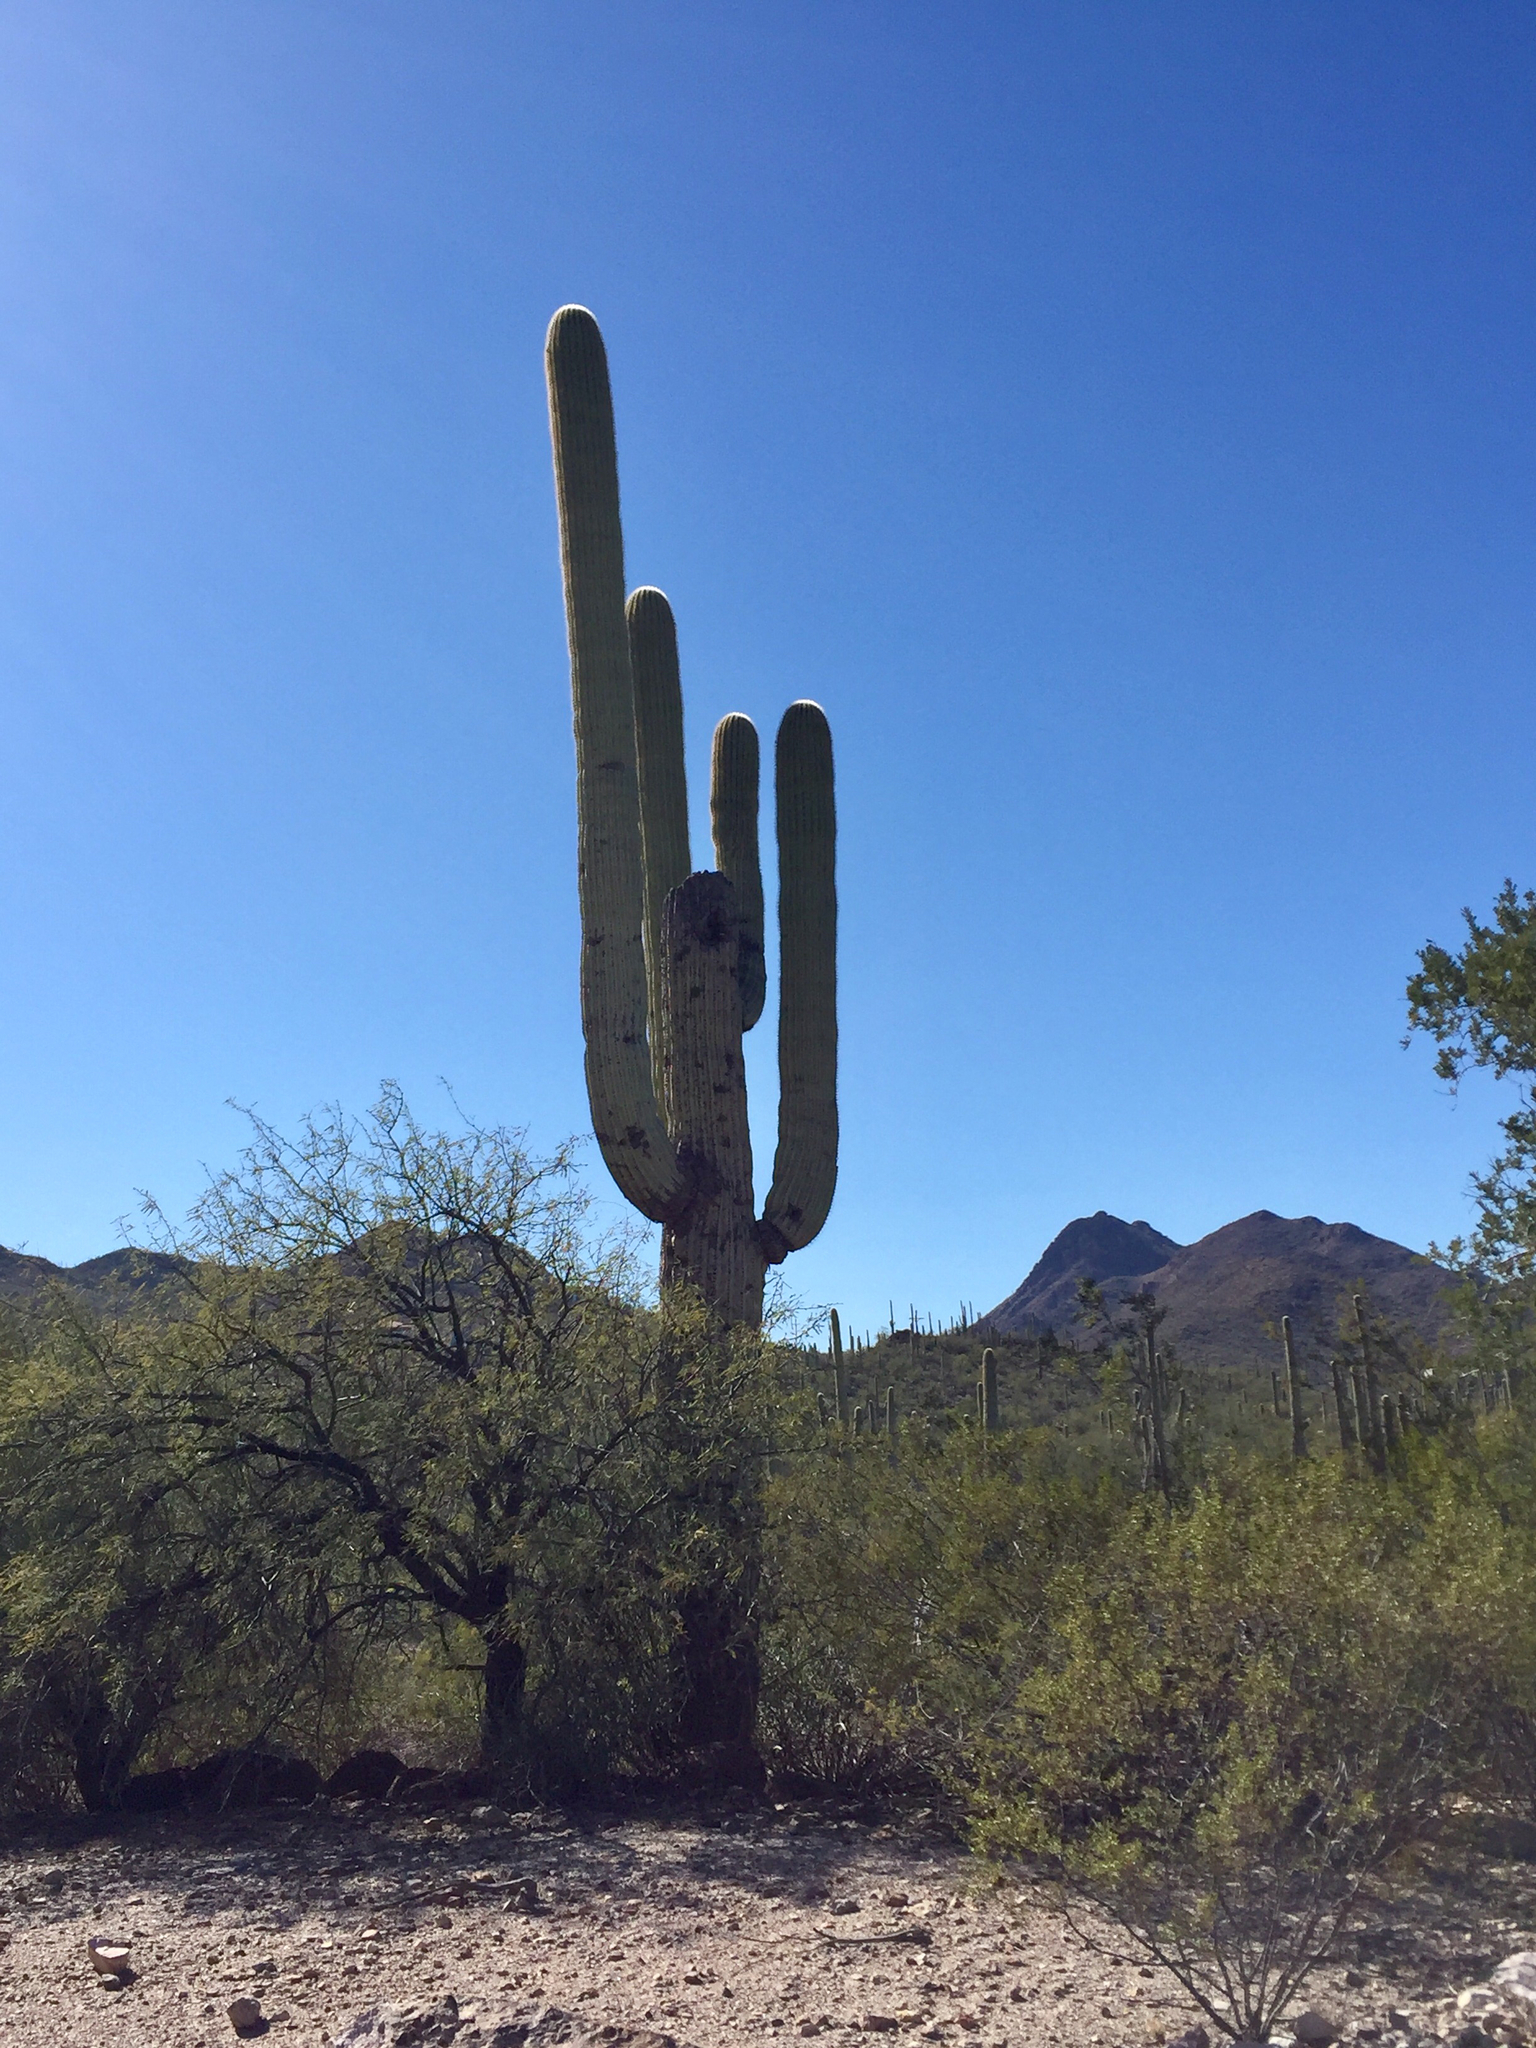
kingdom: Plantae
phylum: Tracheophyta
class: Magnoliopsida
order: Caryophyllales
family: Cactaceae
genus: Carnegiea
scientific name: Carnegiea gigantea
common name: Saguaro
